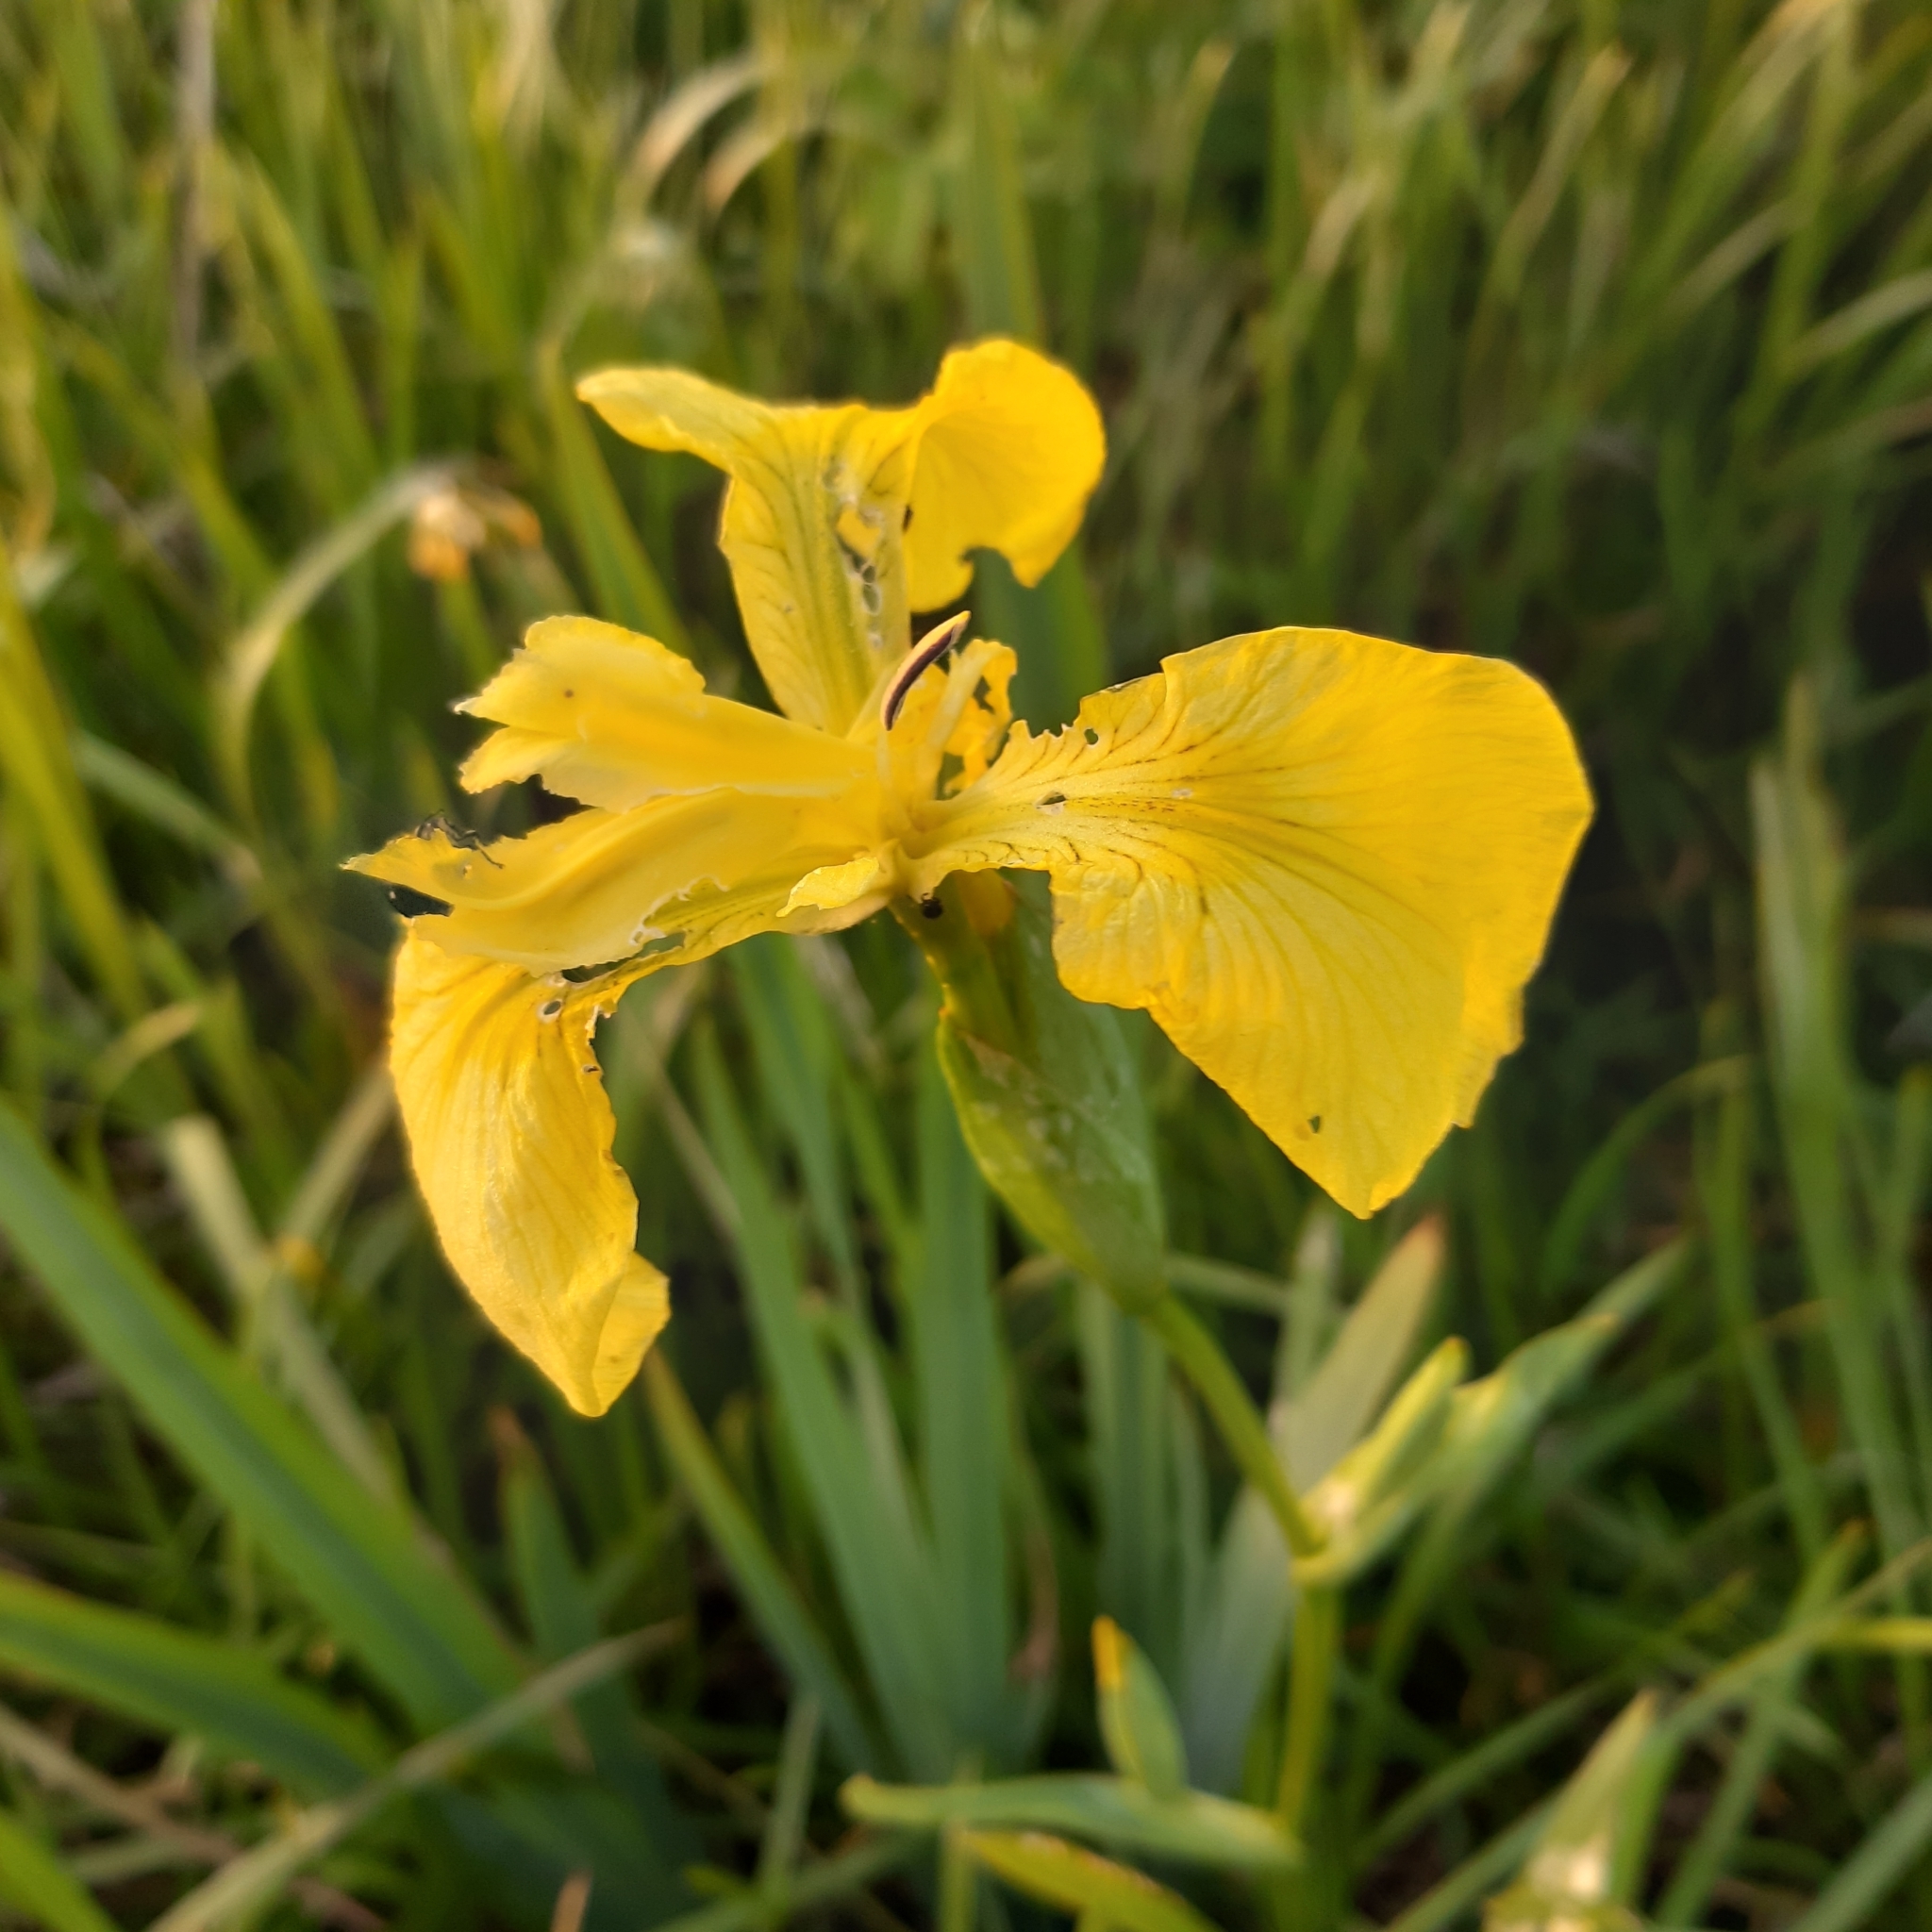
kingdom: Plantae
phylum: Tracheophyta
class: Liliopsida
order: Asparagales
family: Iridaceae
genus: Iris
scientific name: Iris pseudacorus
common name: Yellow flag
